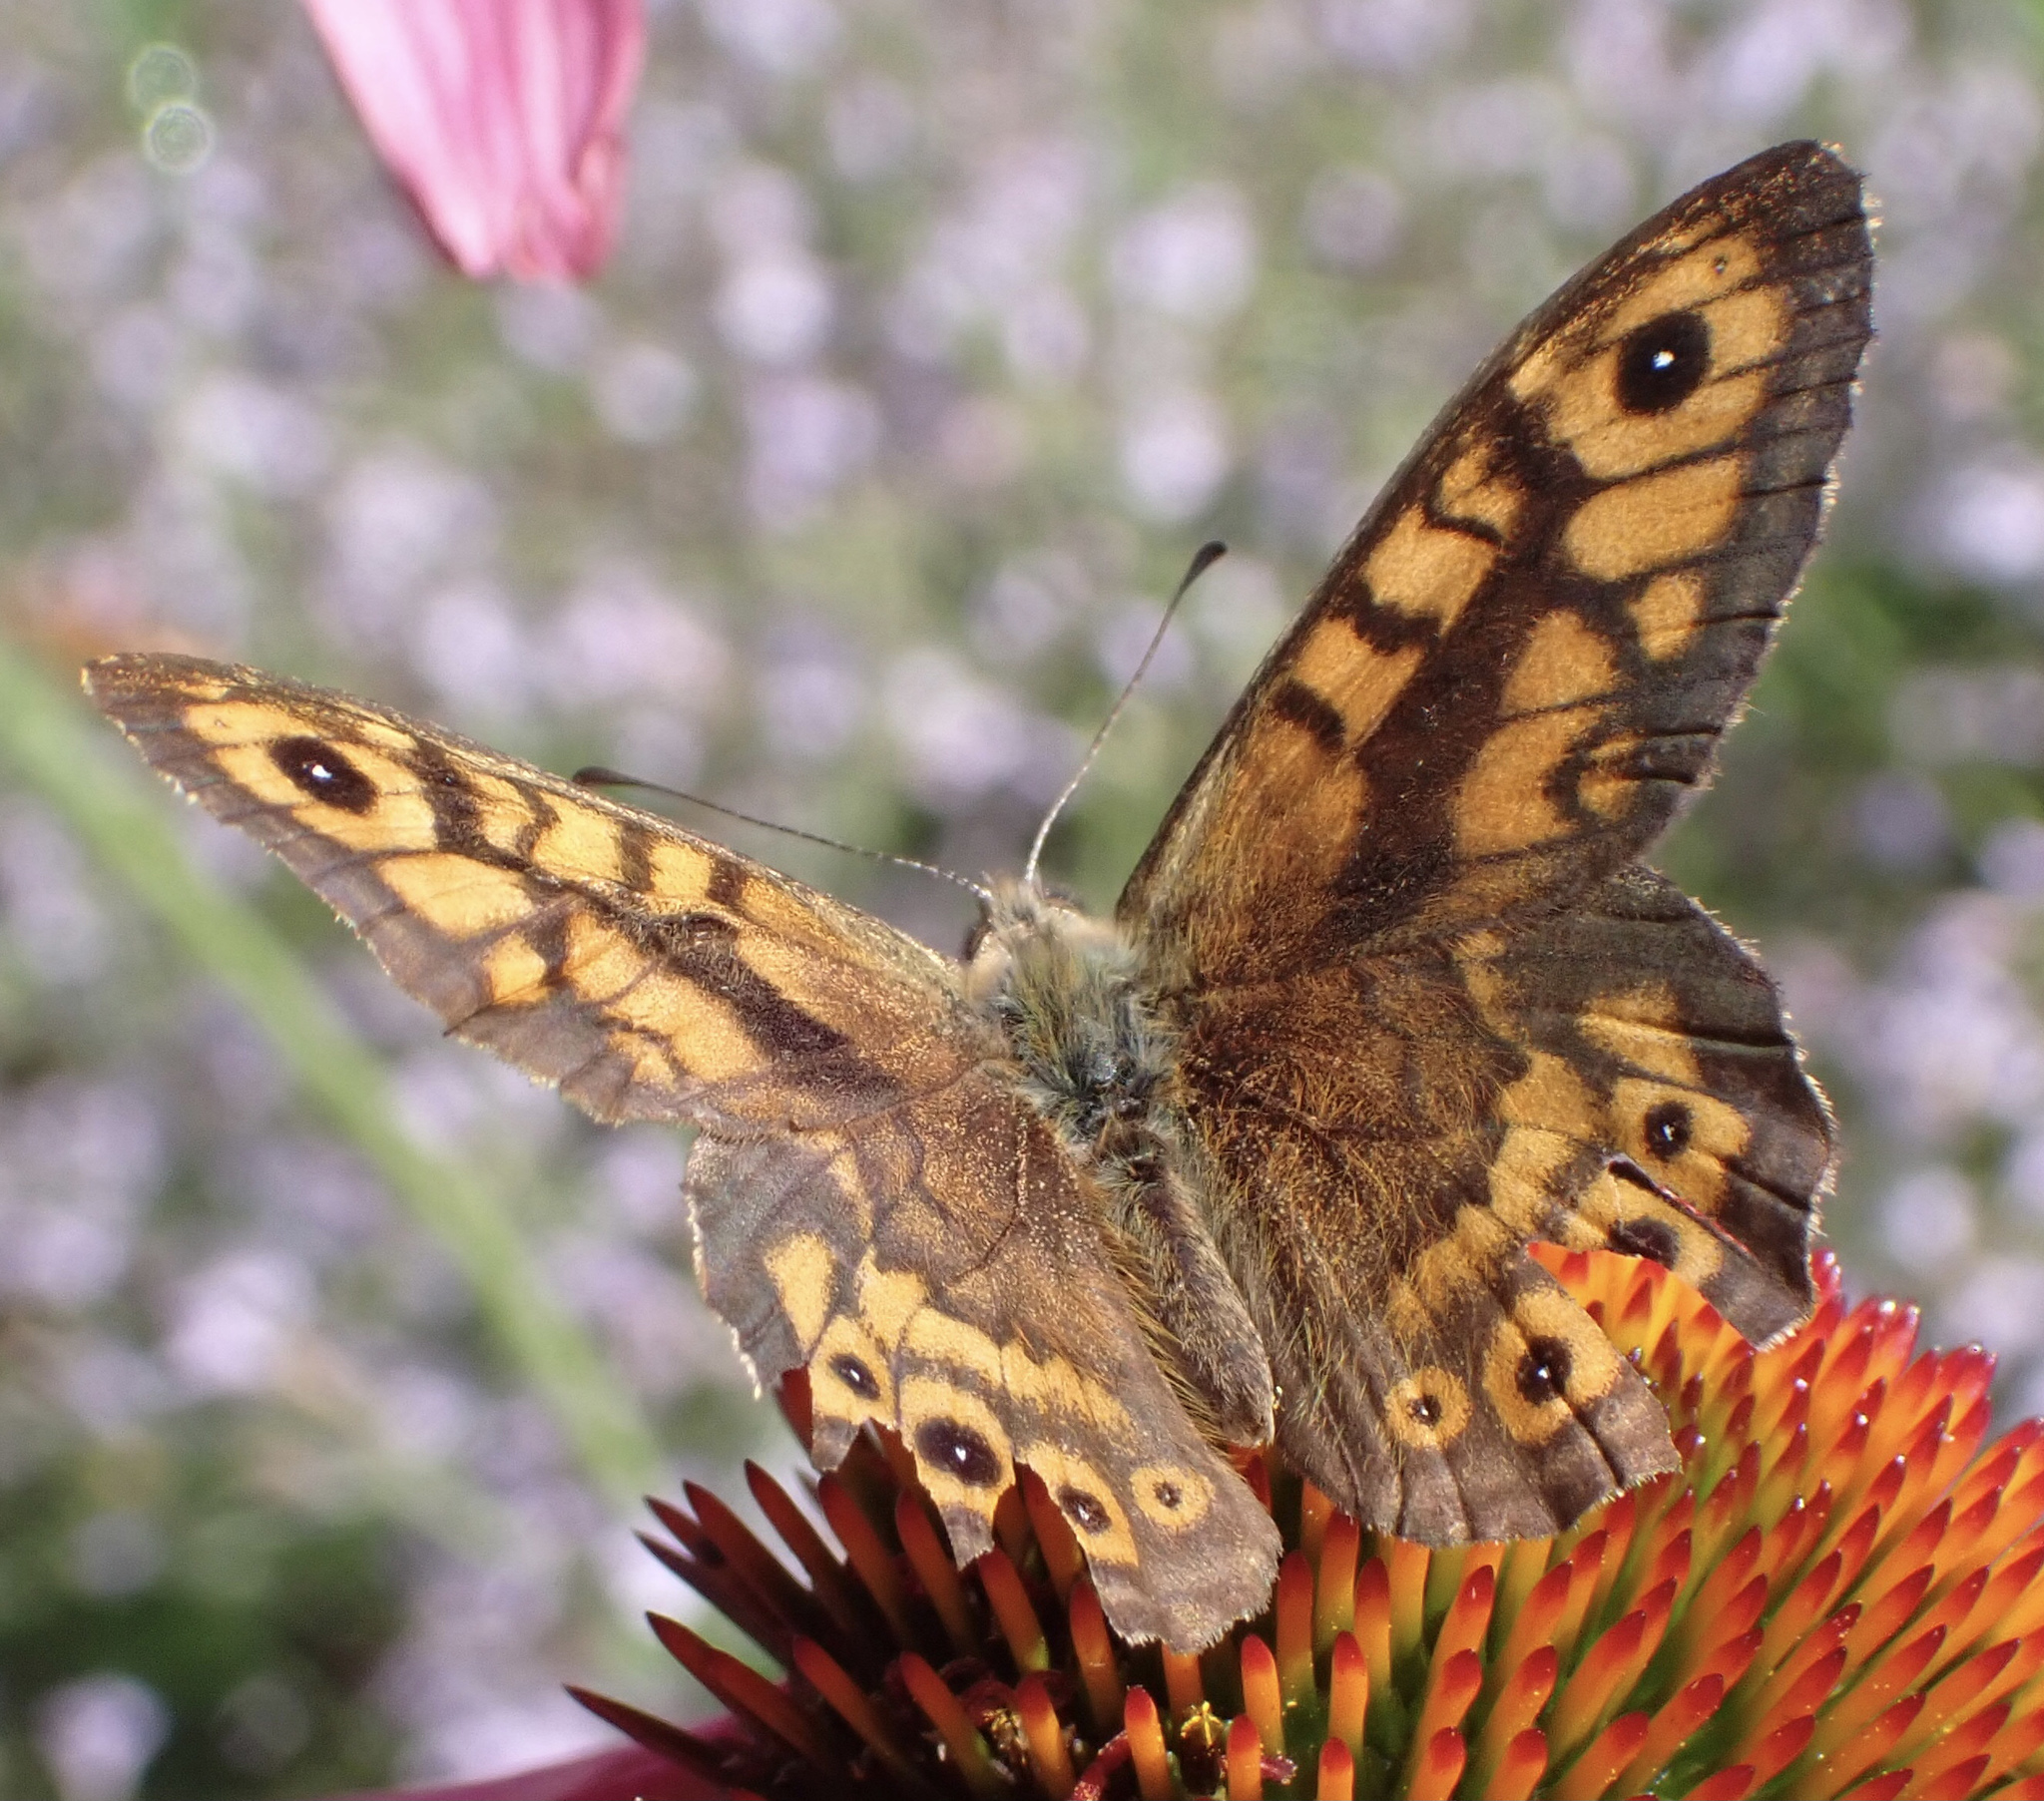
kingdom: Animalia
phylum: Arthropoda
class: Insecta
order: Lepidoptera
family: Nymphalidae
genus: Pararge
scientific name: Pararge Lasiommata megera
